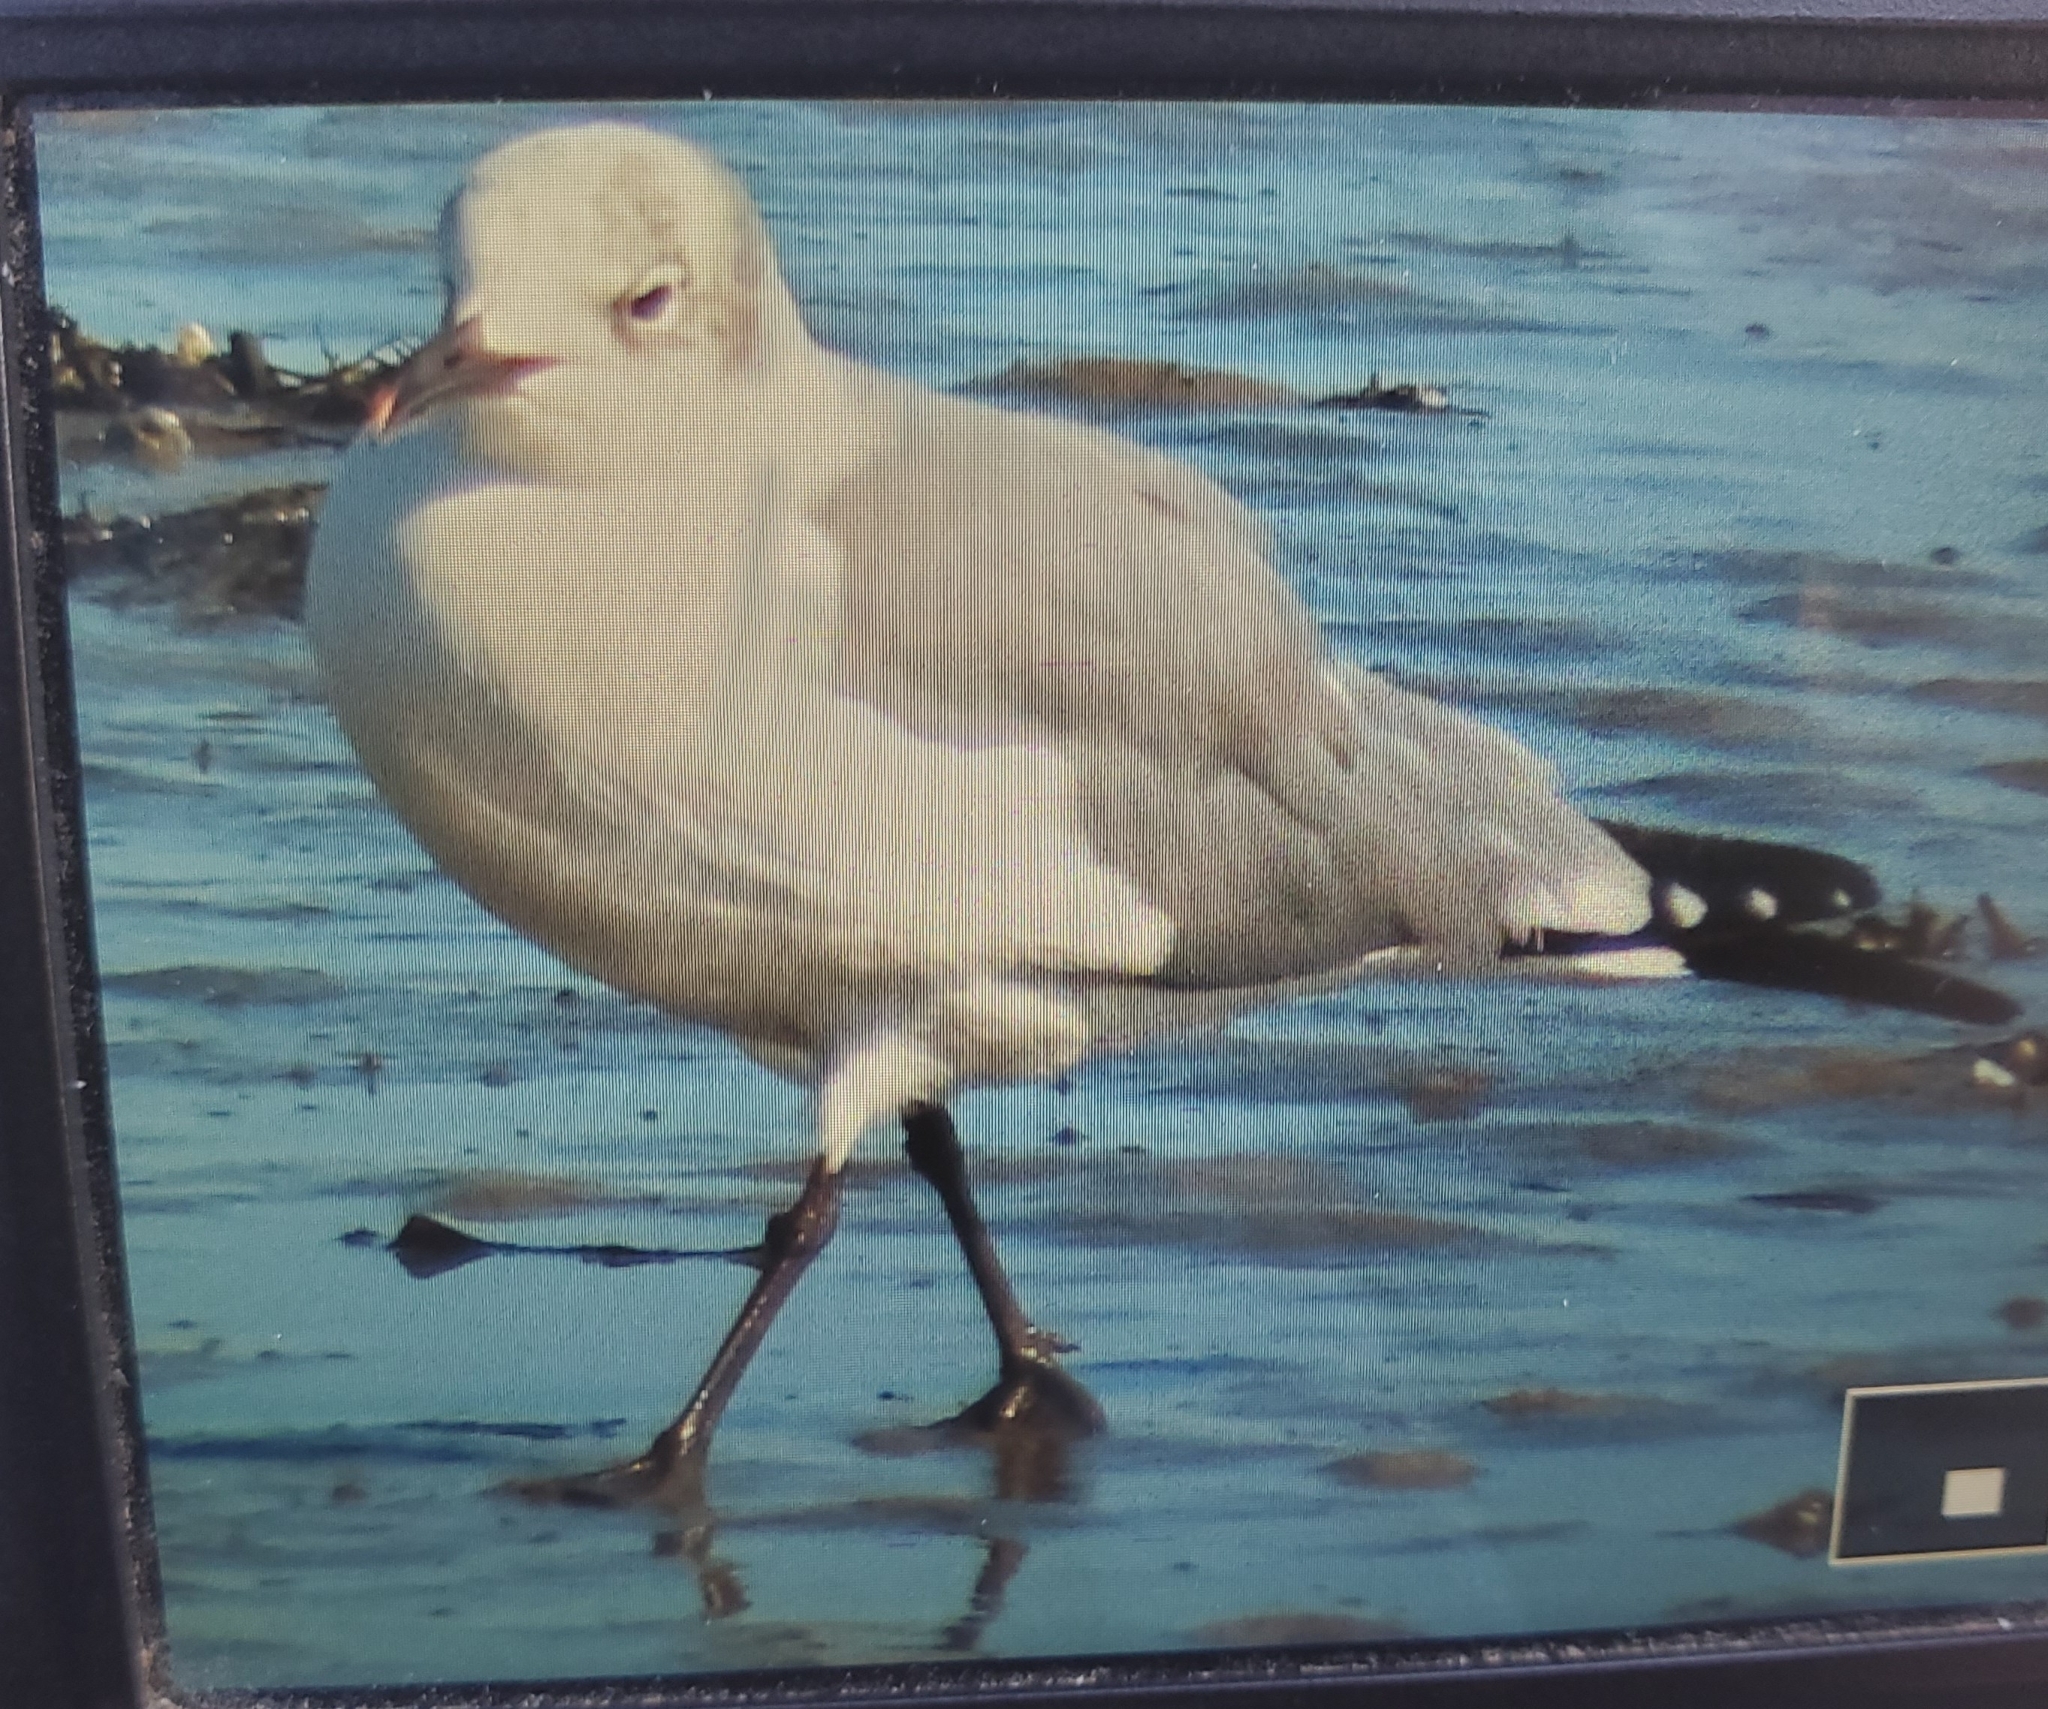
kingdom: Animalia
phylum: Chordata
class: Aves
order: Charadriiformes
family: Laridae
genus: Leucophaeus
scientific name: Leucophaeus atricilla
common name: Laughing gull
